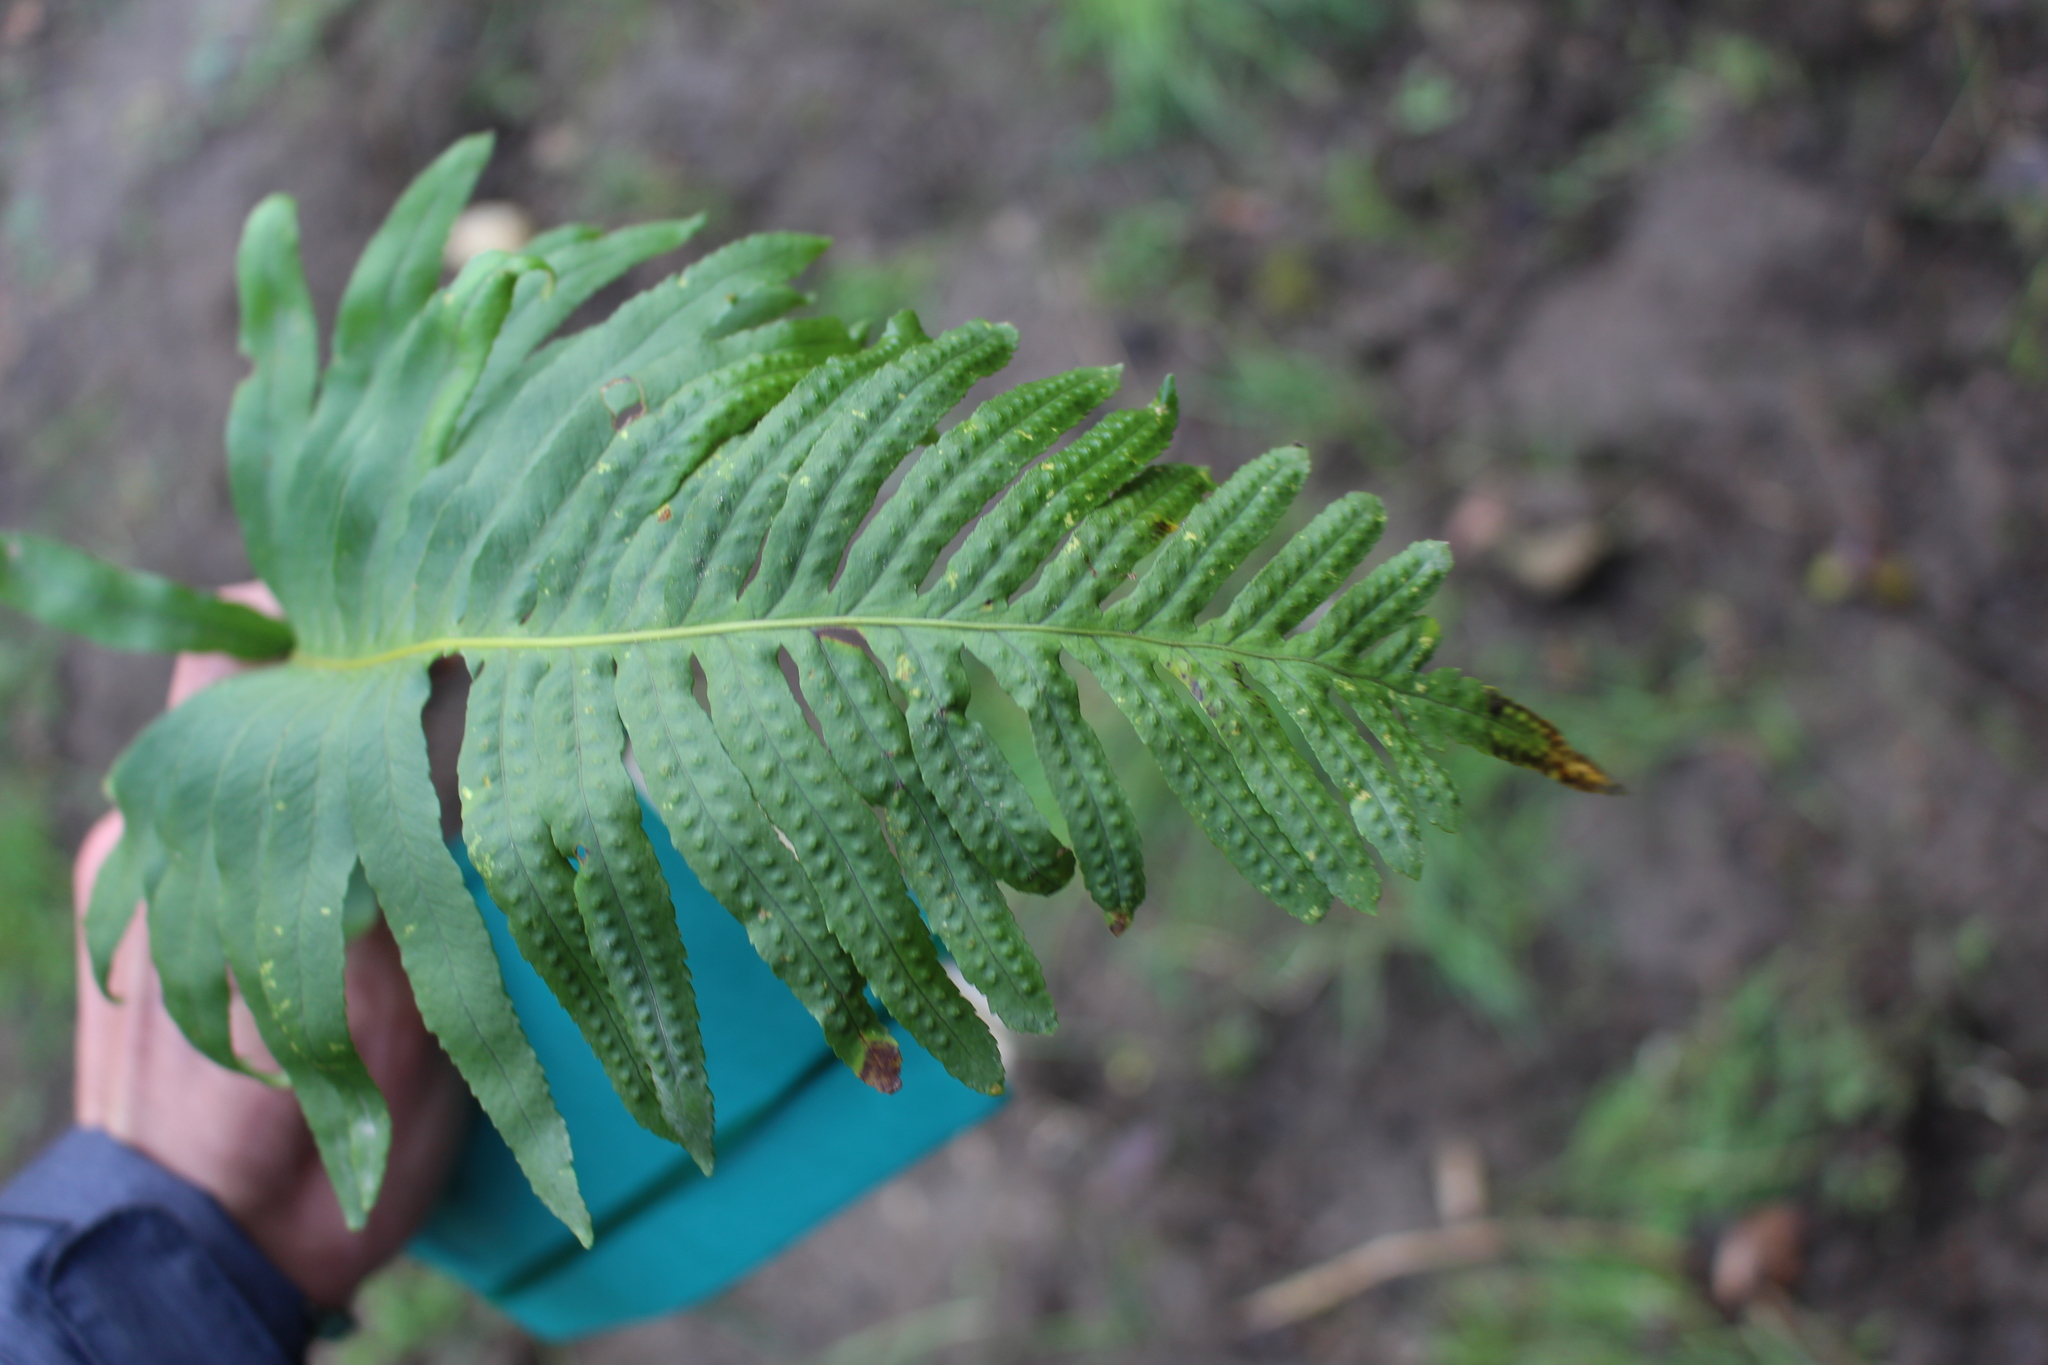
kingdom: Plantae
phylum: Tracheophyta
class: Polypodiopsida
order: Polypodiales
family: Polypodiaceae
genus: Polypodium
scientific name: Polypodium cambricum
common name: Southern polypody
